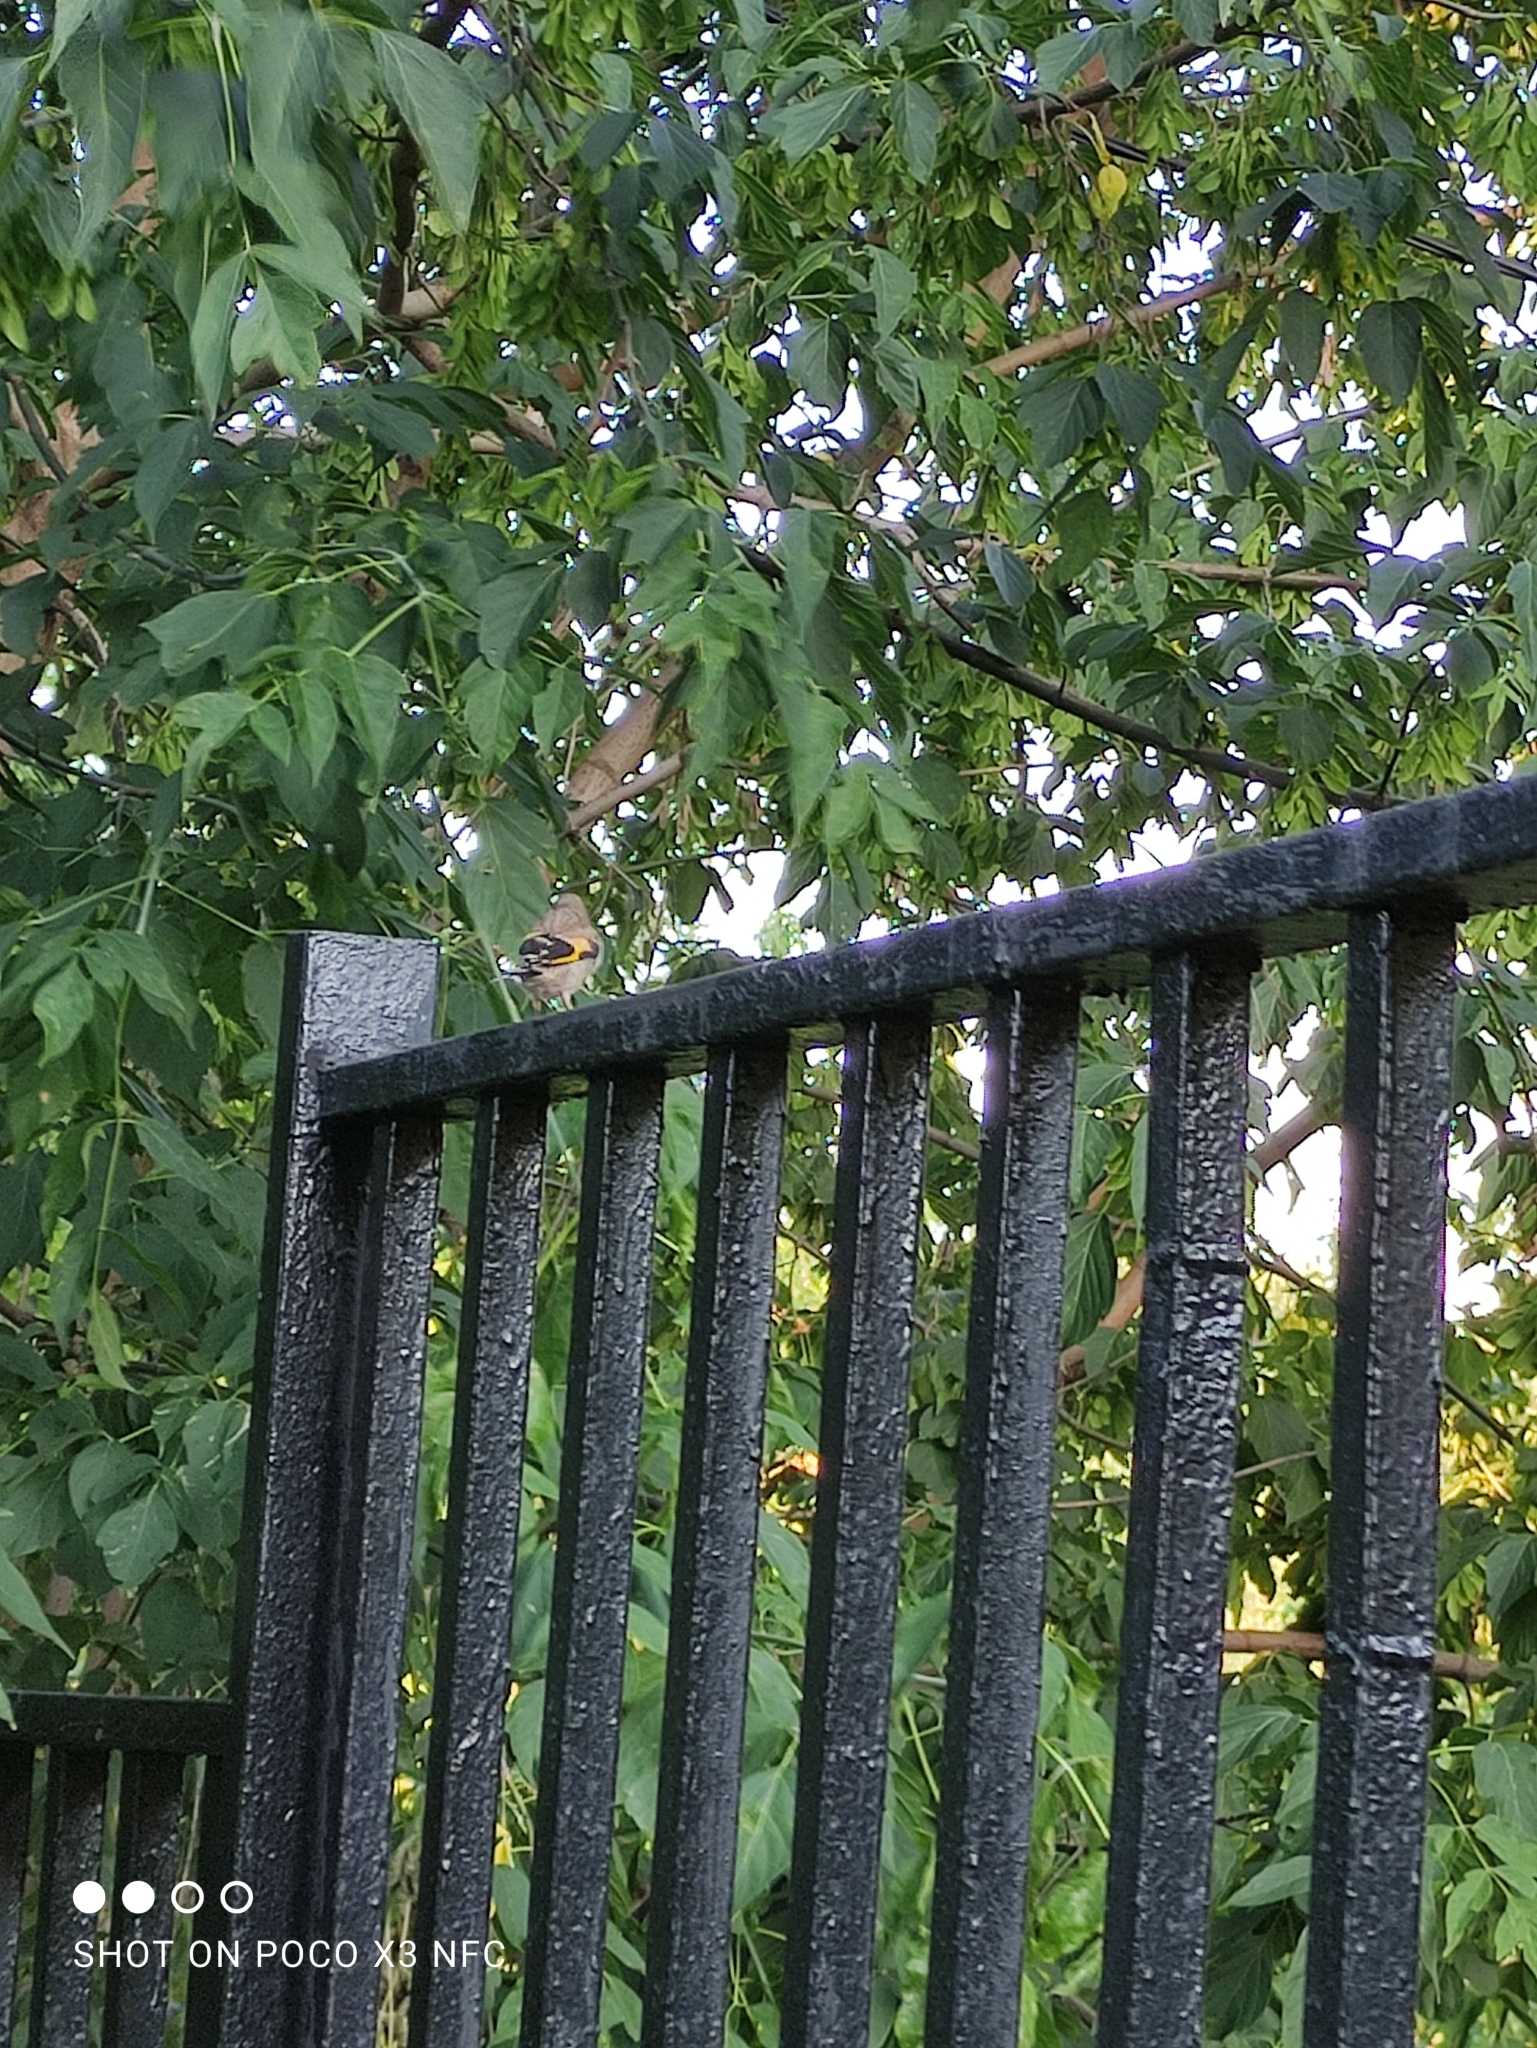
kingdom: Animalia
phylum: Chordata
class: Aves
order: Passeriformes
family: Fringillidae
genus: Carduelis
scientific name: Carduelis carduelis
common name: European goldfinch
